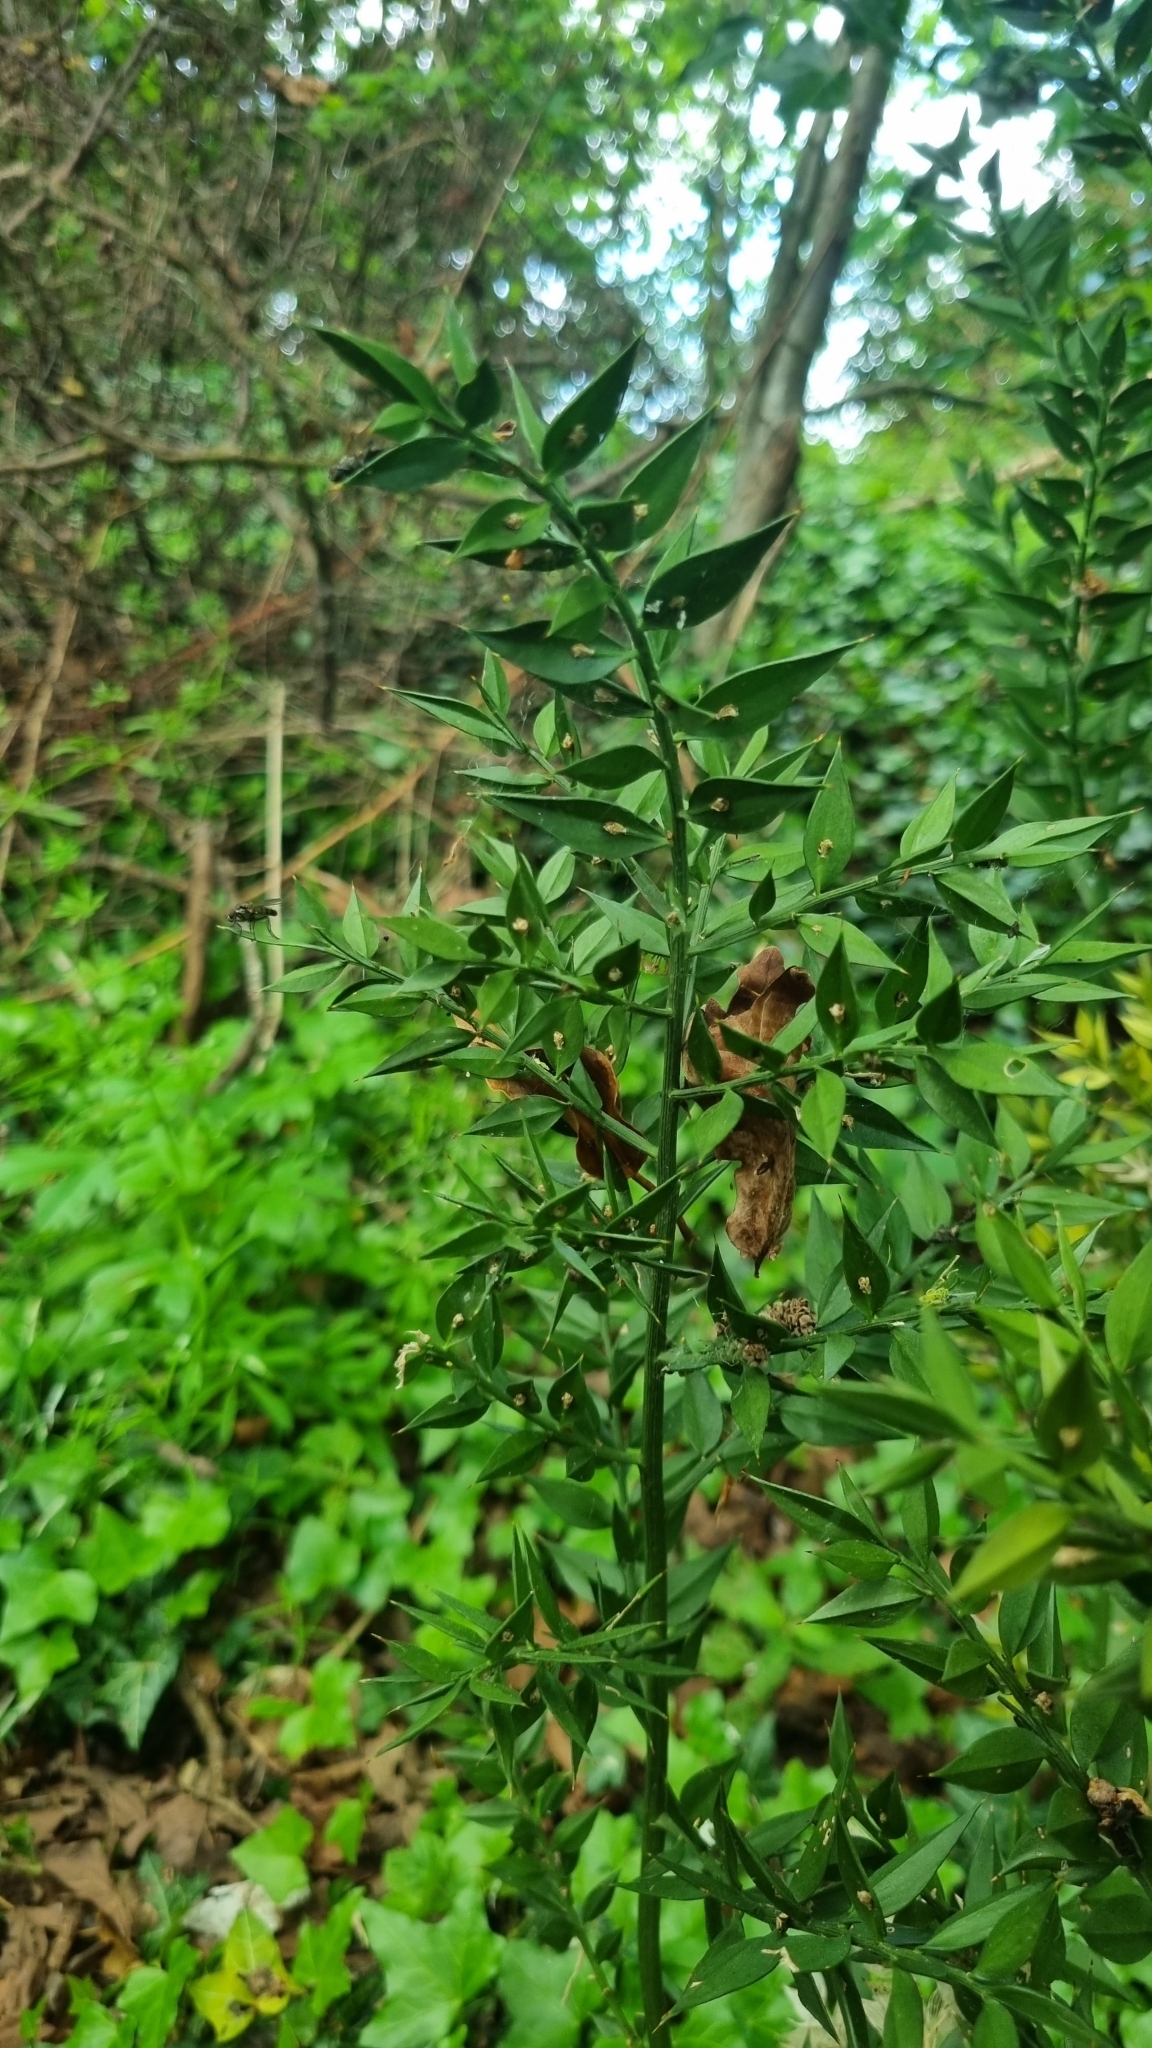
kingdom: Plantae
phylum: Tracheophyta
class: Liliopsida
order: Asparagales
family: Asparagaceae
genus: Ruscus
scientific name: Ruscus aculeatus
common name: Butcher's-broom
